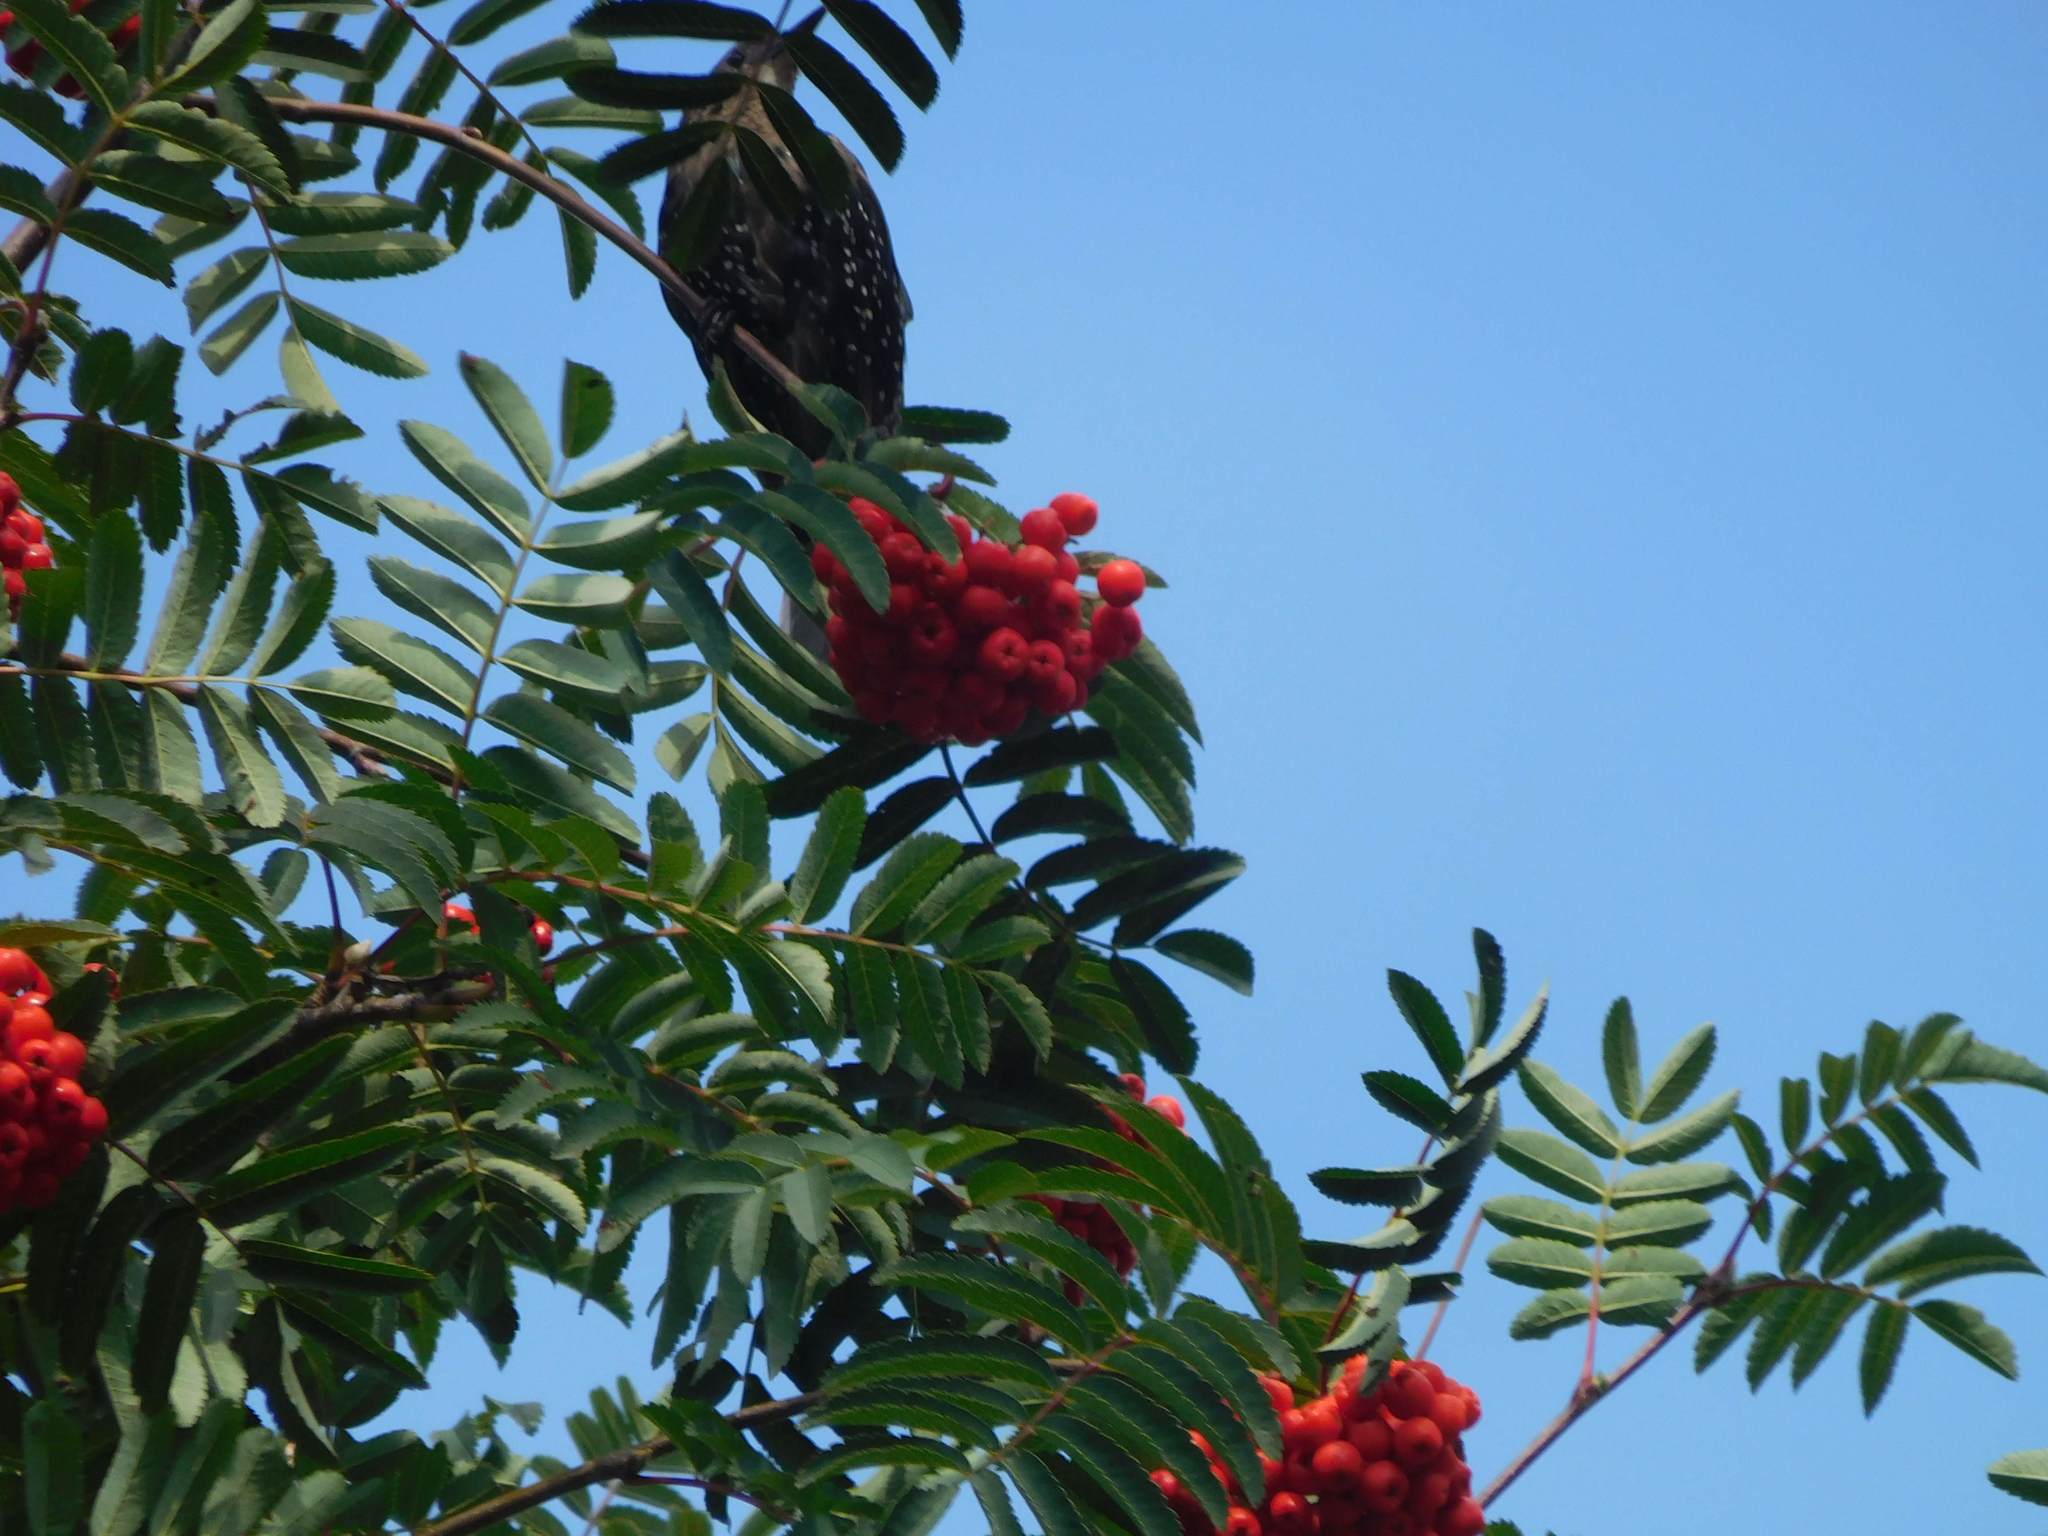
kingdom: Animalia
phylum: Chordata
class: Aves
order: Passeriformes
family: Sturnidae
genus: Sturnus
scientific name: Sturnus vulgaris
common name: Common starling
